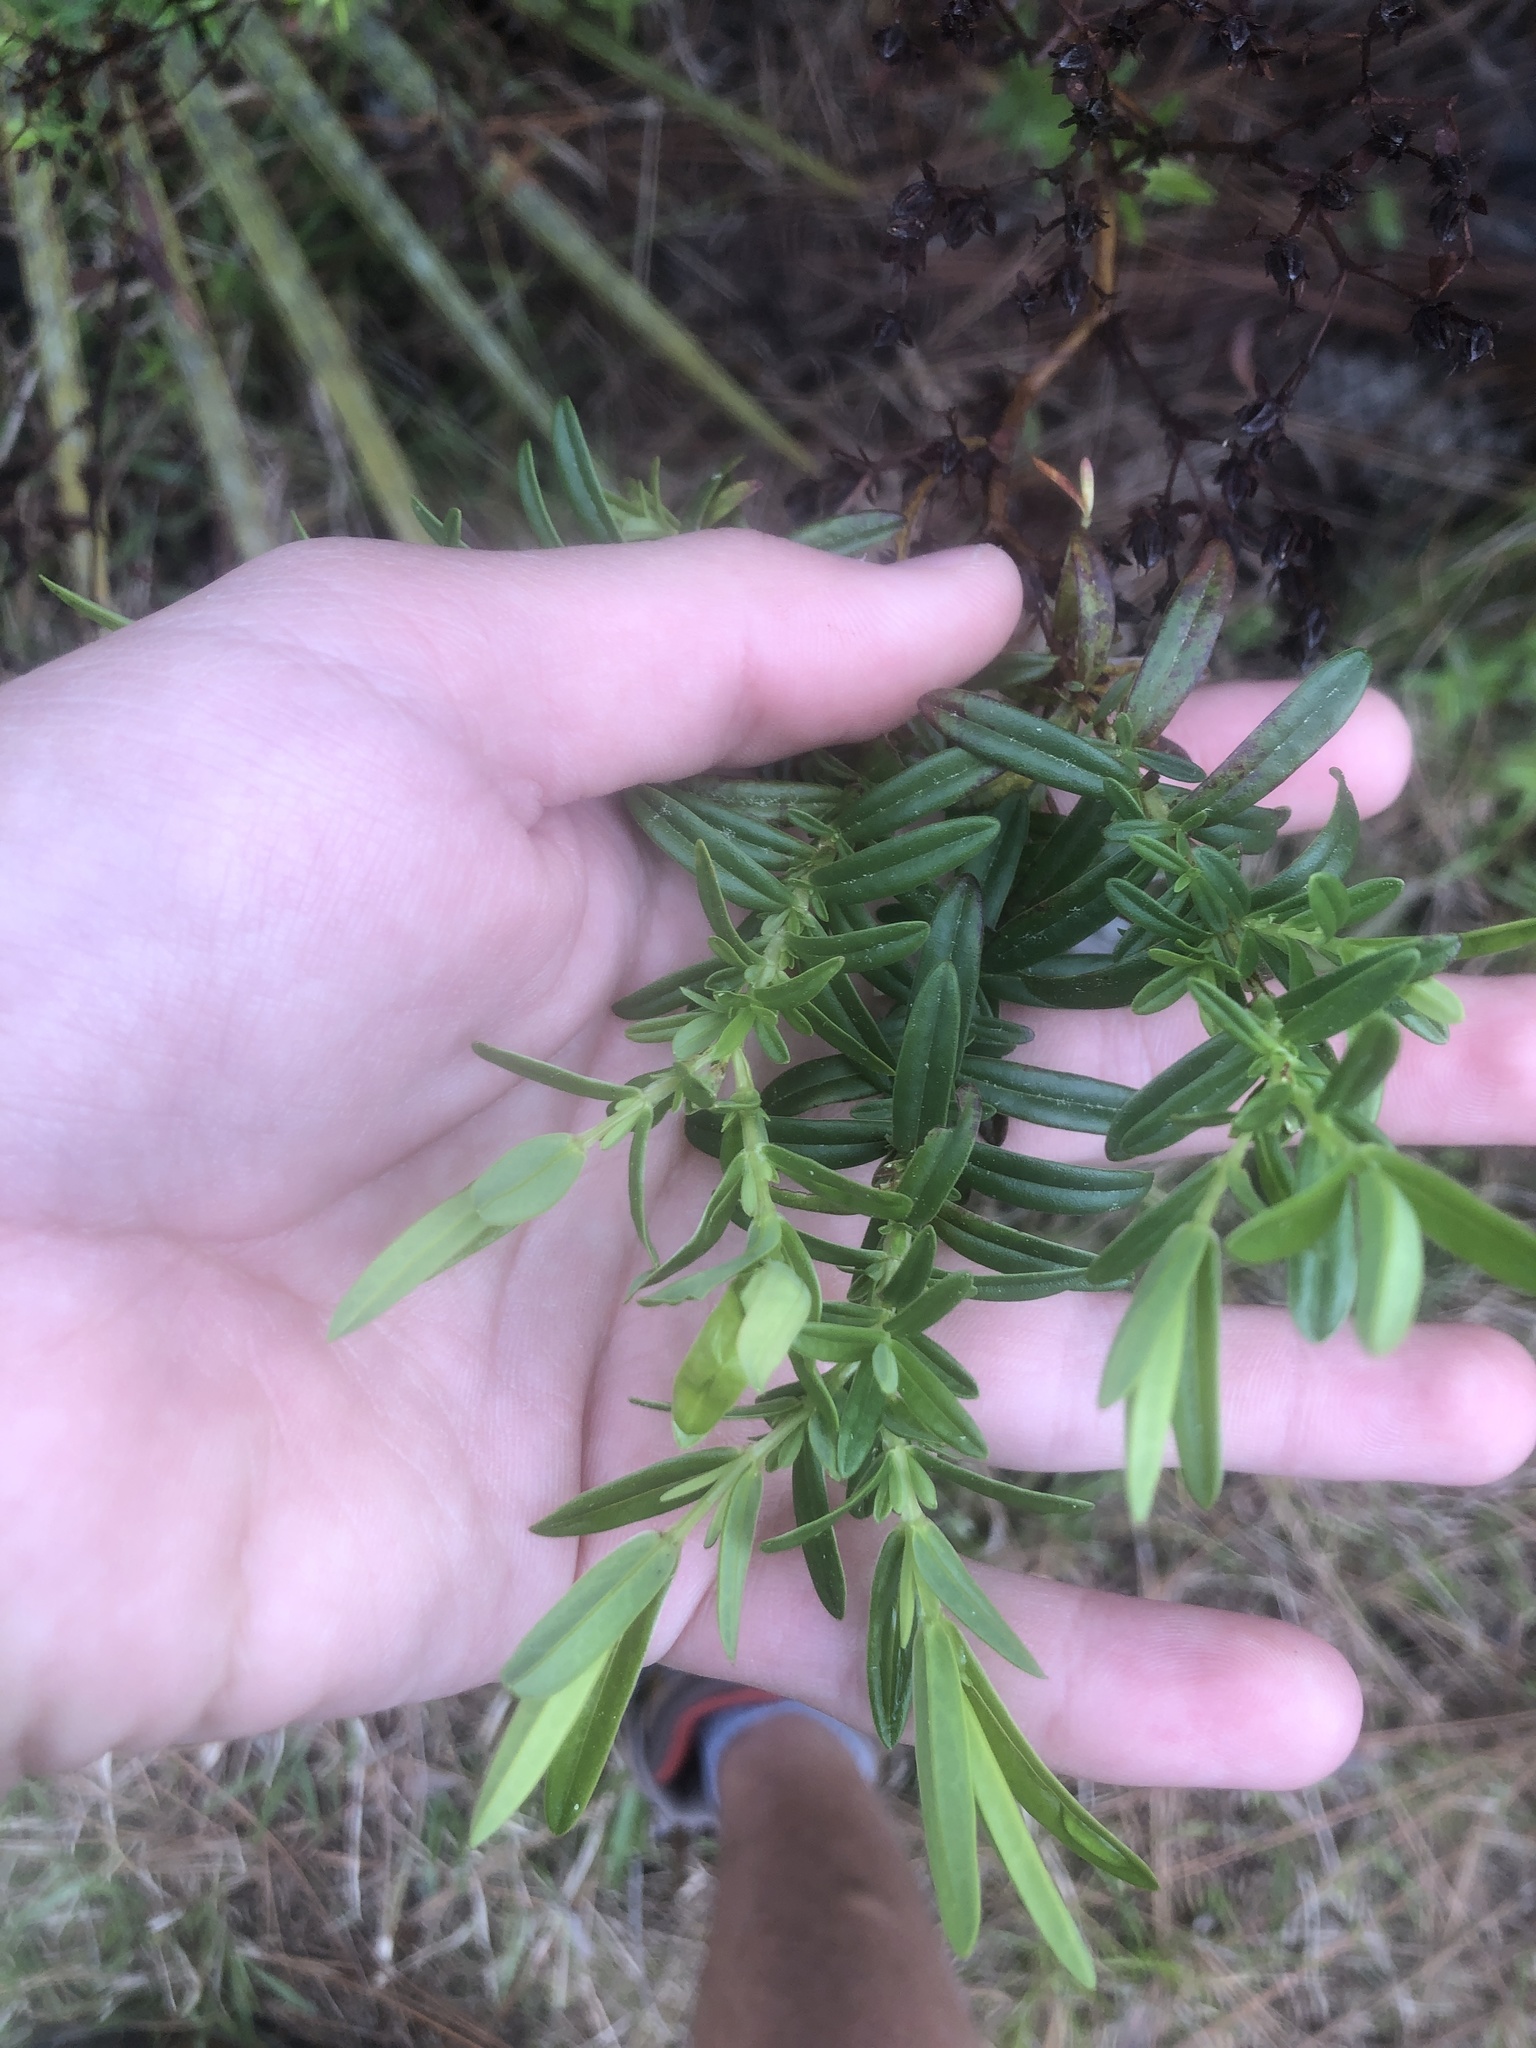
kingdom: Plantae
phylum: Tracheophyta
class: Magnoliopsida
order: Malpighiales
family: Hypericaceae
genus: Hypericum
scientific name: Hypericum cistifolium
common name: Round-pod st. john's-wort
